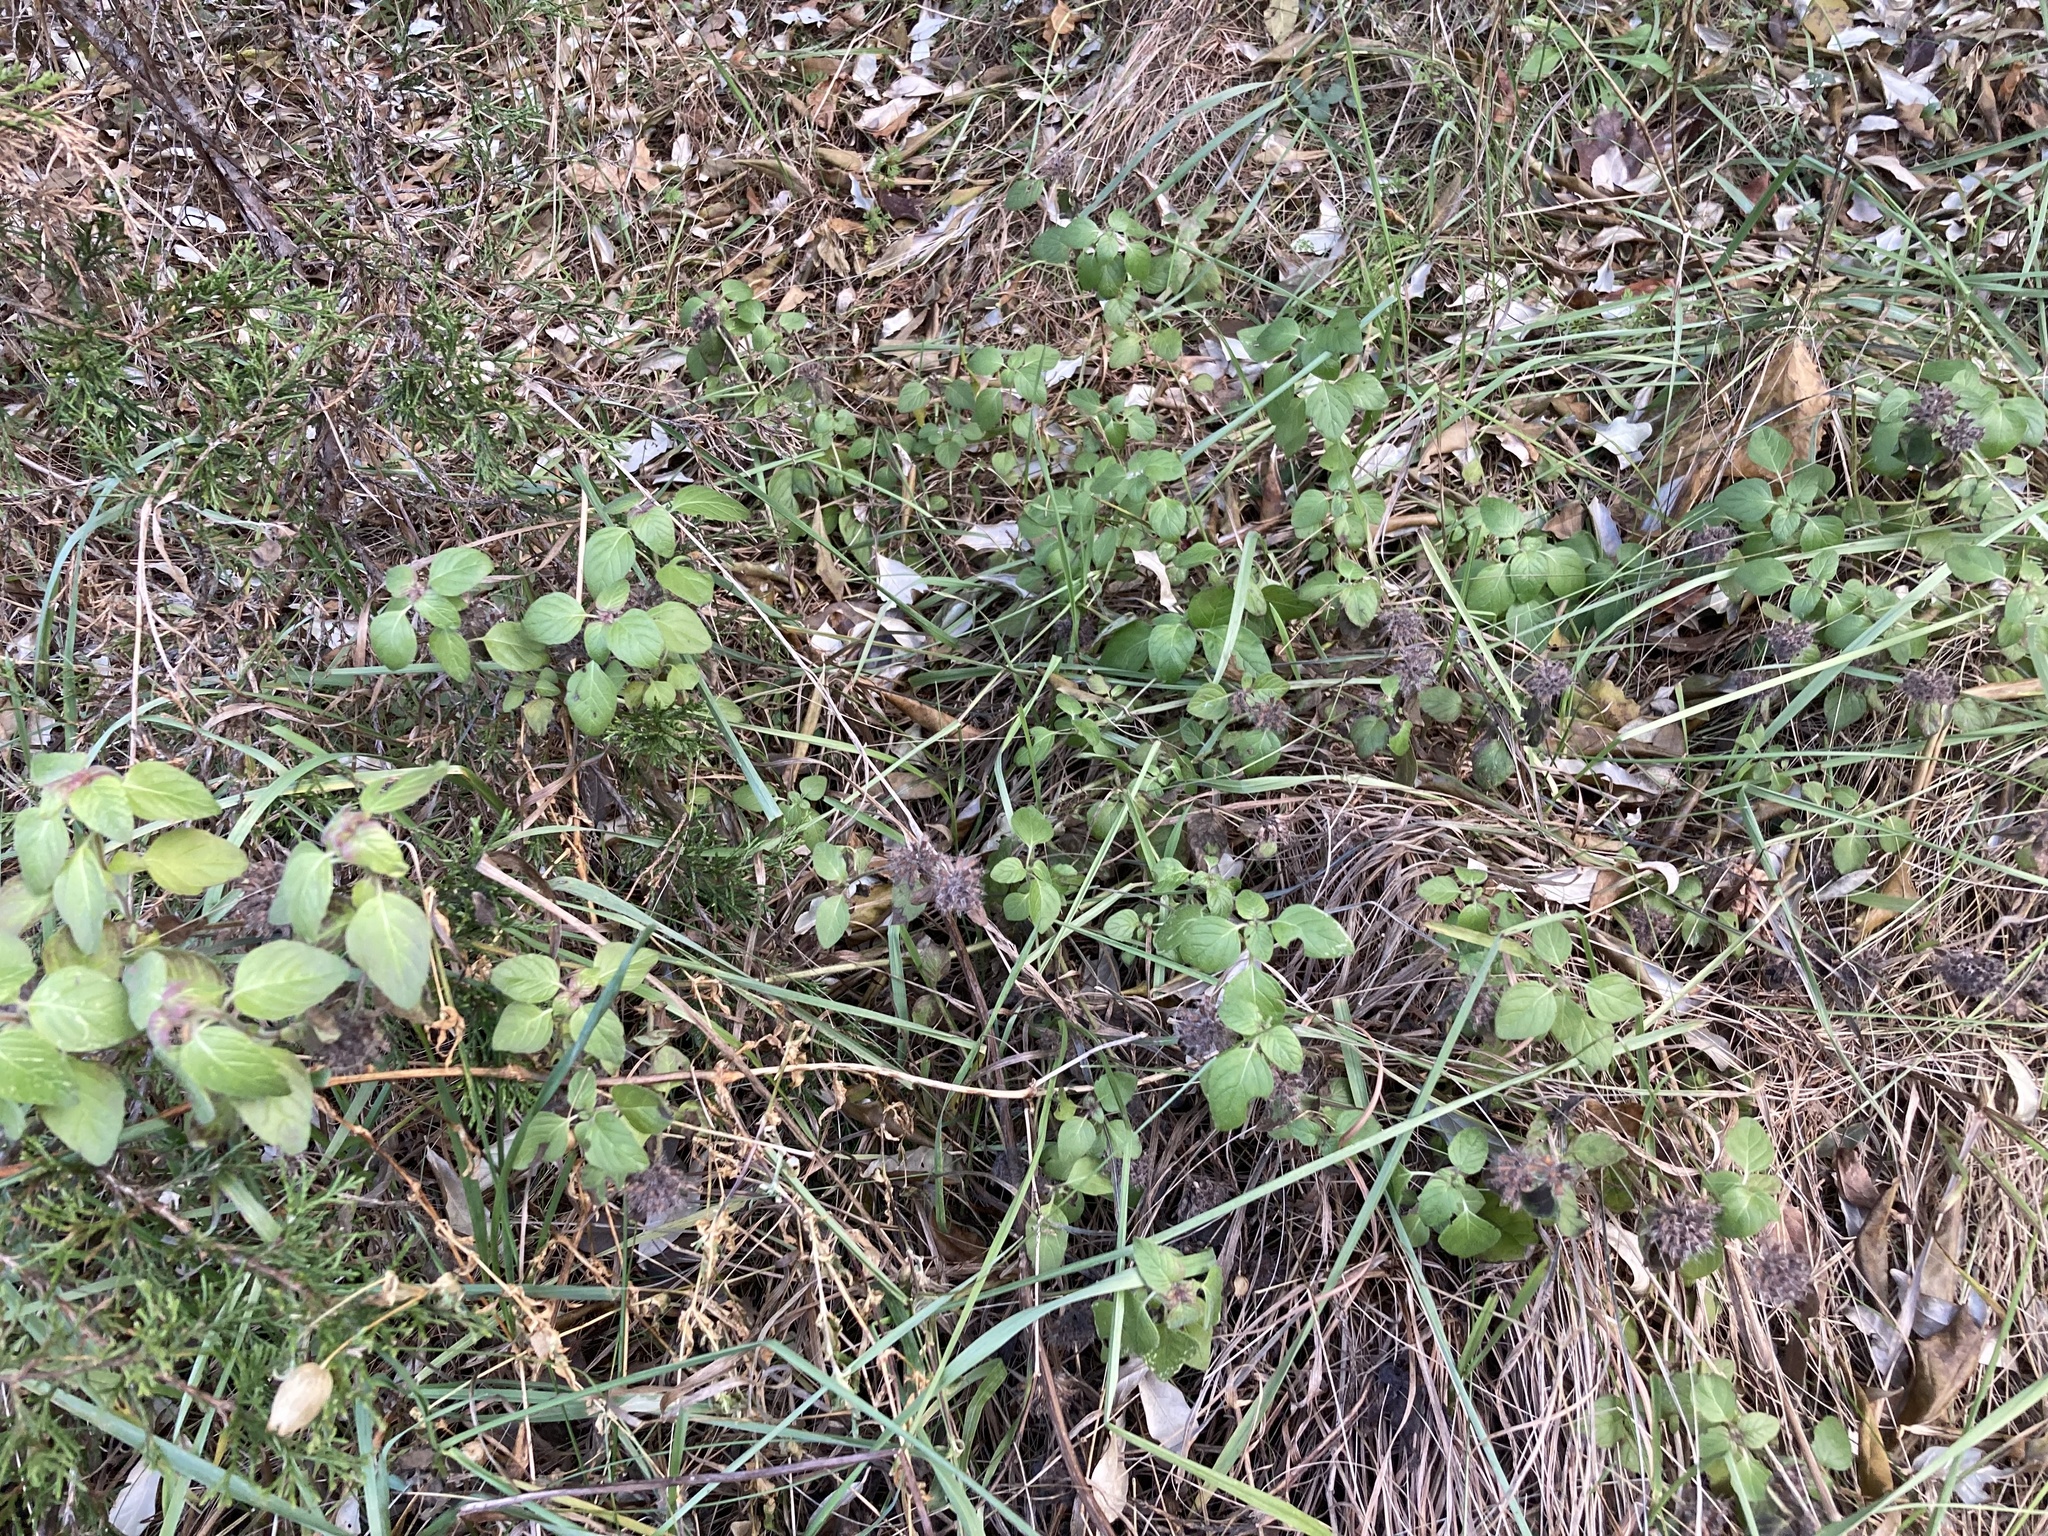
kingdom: Plantae
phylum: Tracheophyta
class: Magnoliopsida
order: Lamiales
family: Lamiaceae
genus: Clinopodium
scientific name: Clinopodium vulgare
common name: Wild basil
